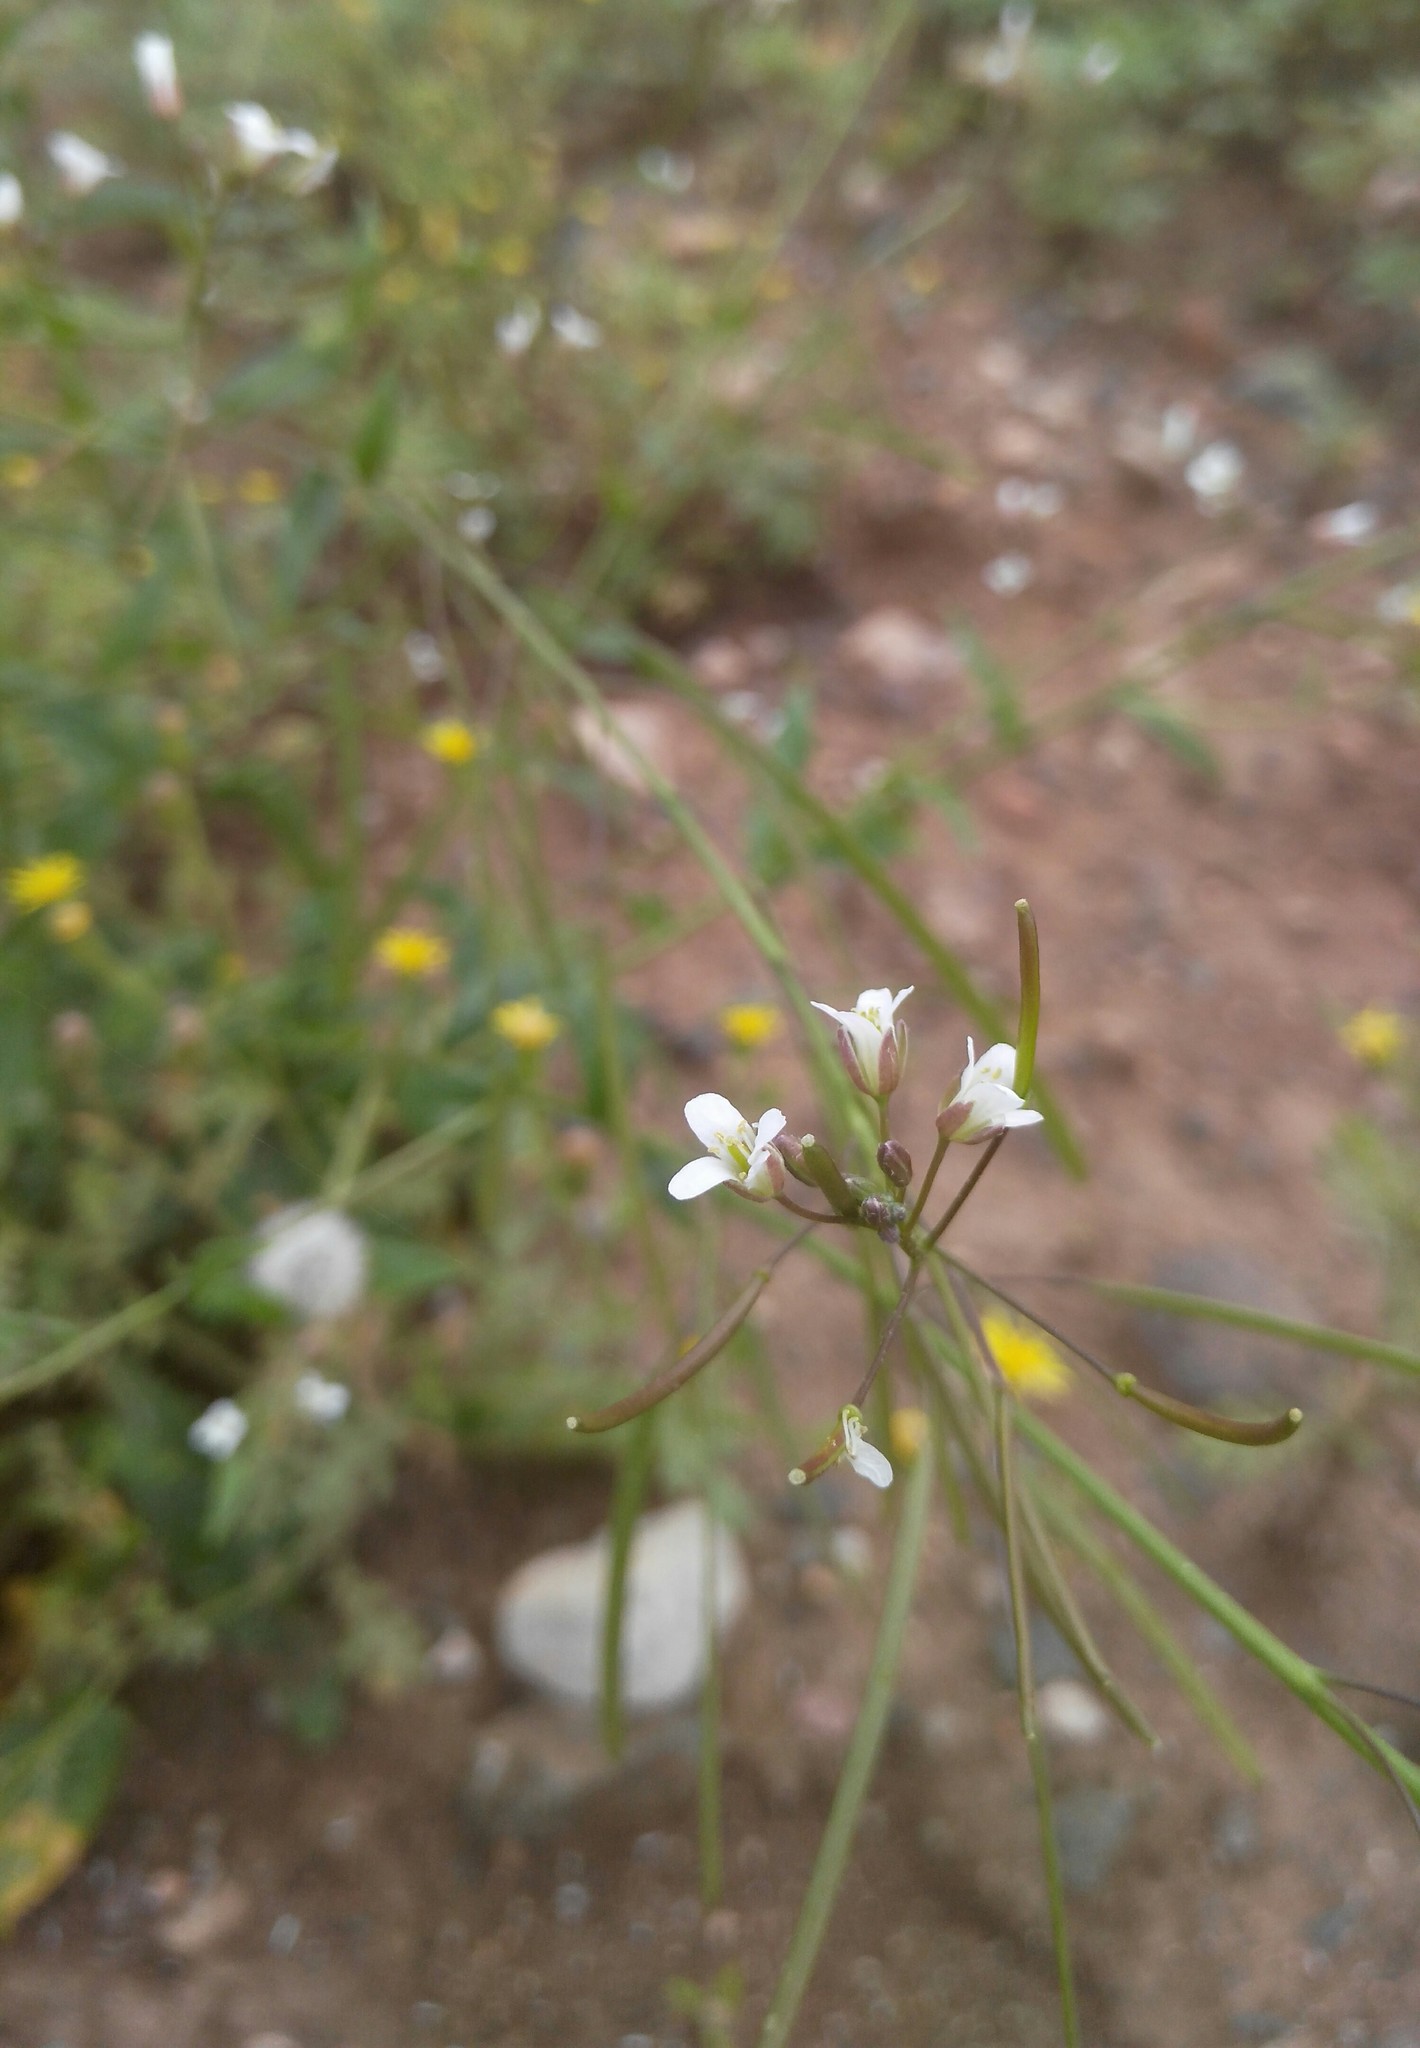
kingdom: Plantae
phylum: Tracheophyta
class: Magnoliopsida
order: Brassicales
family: Brassicaceae
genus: Catolobus
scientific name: Catolobus pendulus
